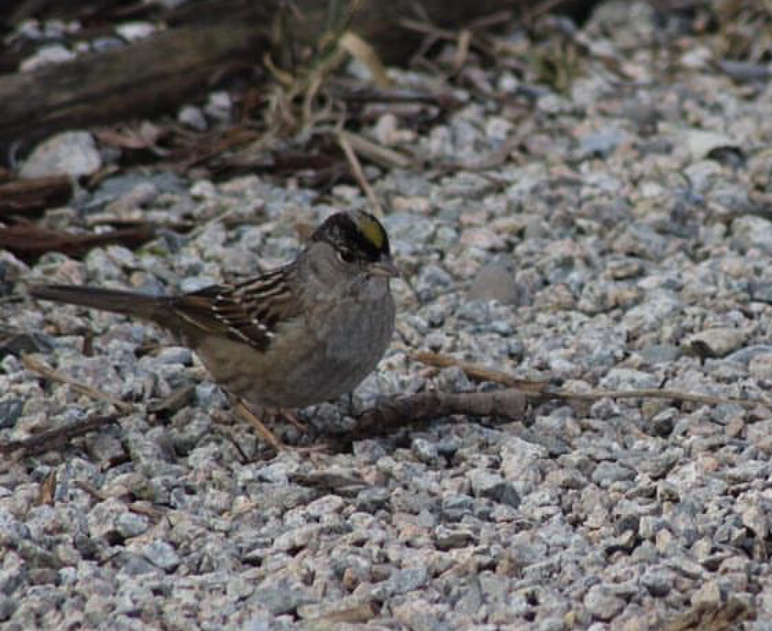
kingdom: Animalia
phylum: Chordata
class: Aves
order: Passeriformes
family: Passerellidae
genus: Zonotrichia
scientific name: Zonotrichia atricapilla
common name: Golden-crowned sparrow
